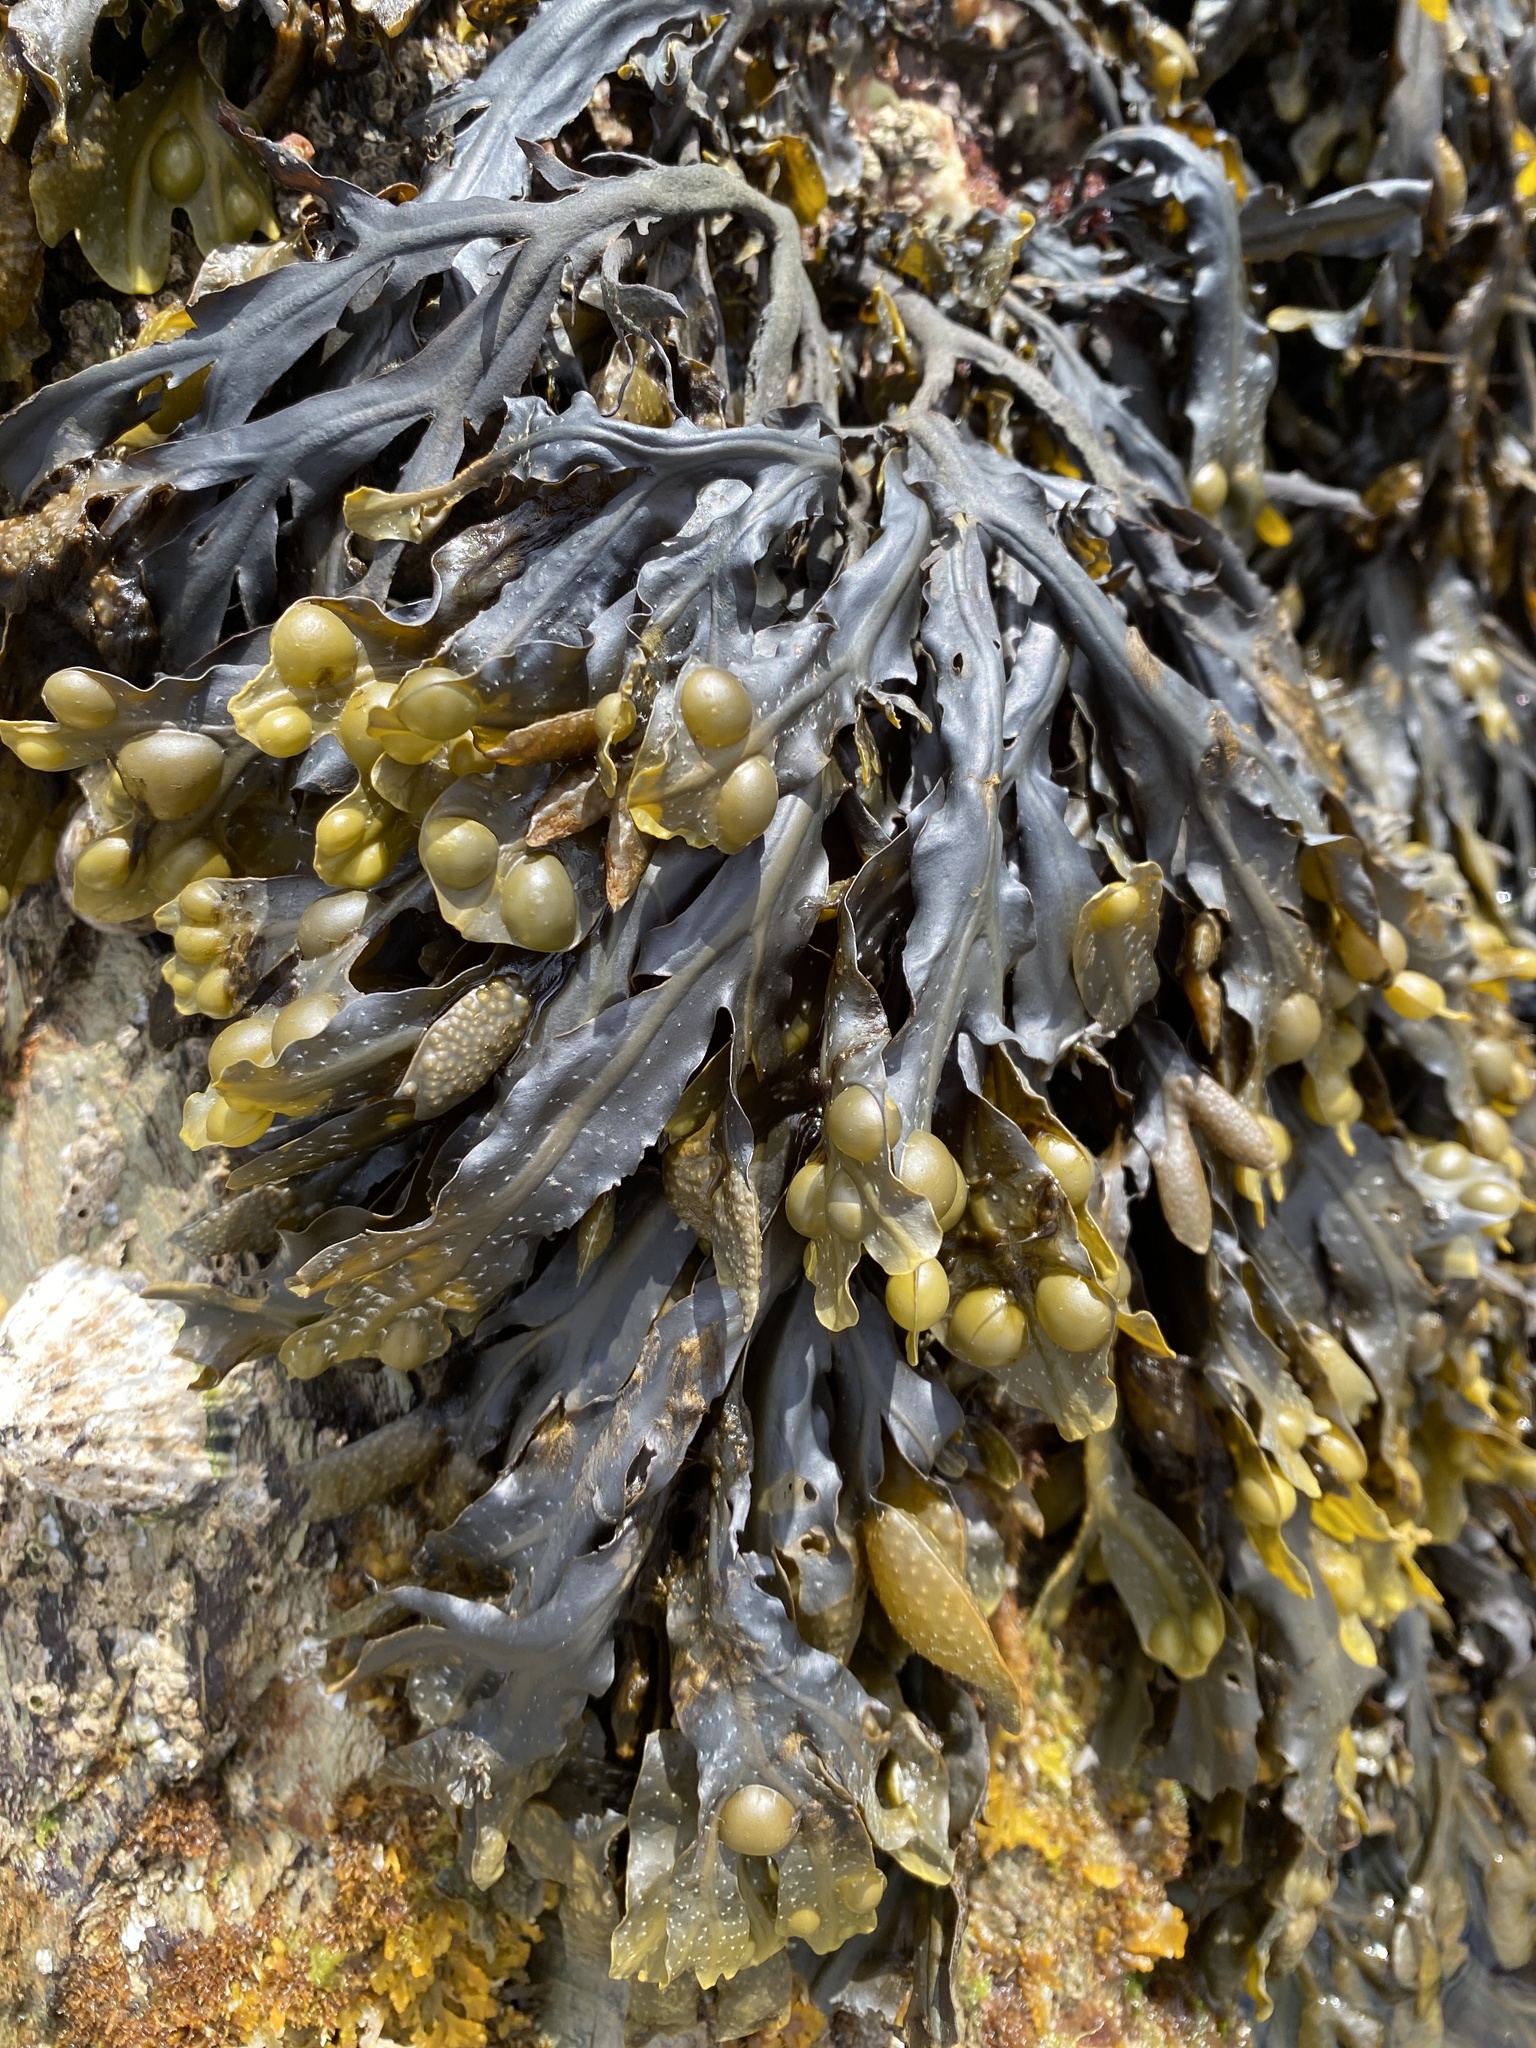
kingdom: Chromista
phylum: Ochrophyta
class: Phaeophyceae
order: Fucales
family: Fucaceae
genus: Fucus
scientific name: Fucus vesiculosus
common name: Bladder wrack
